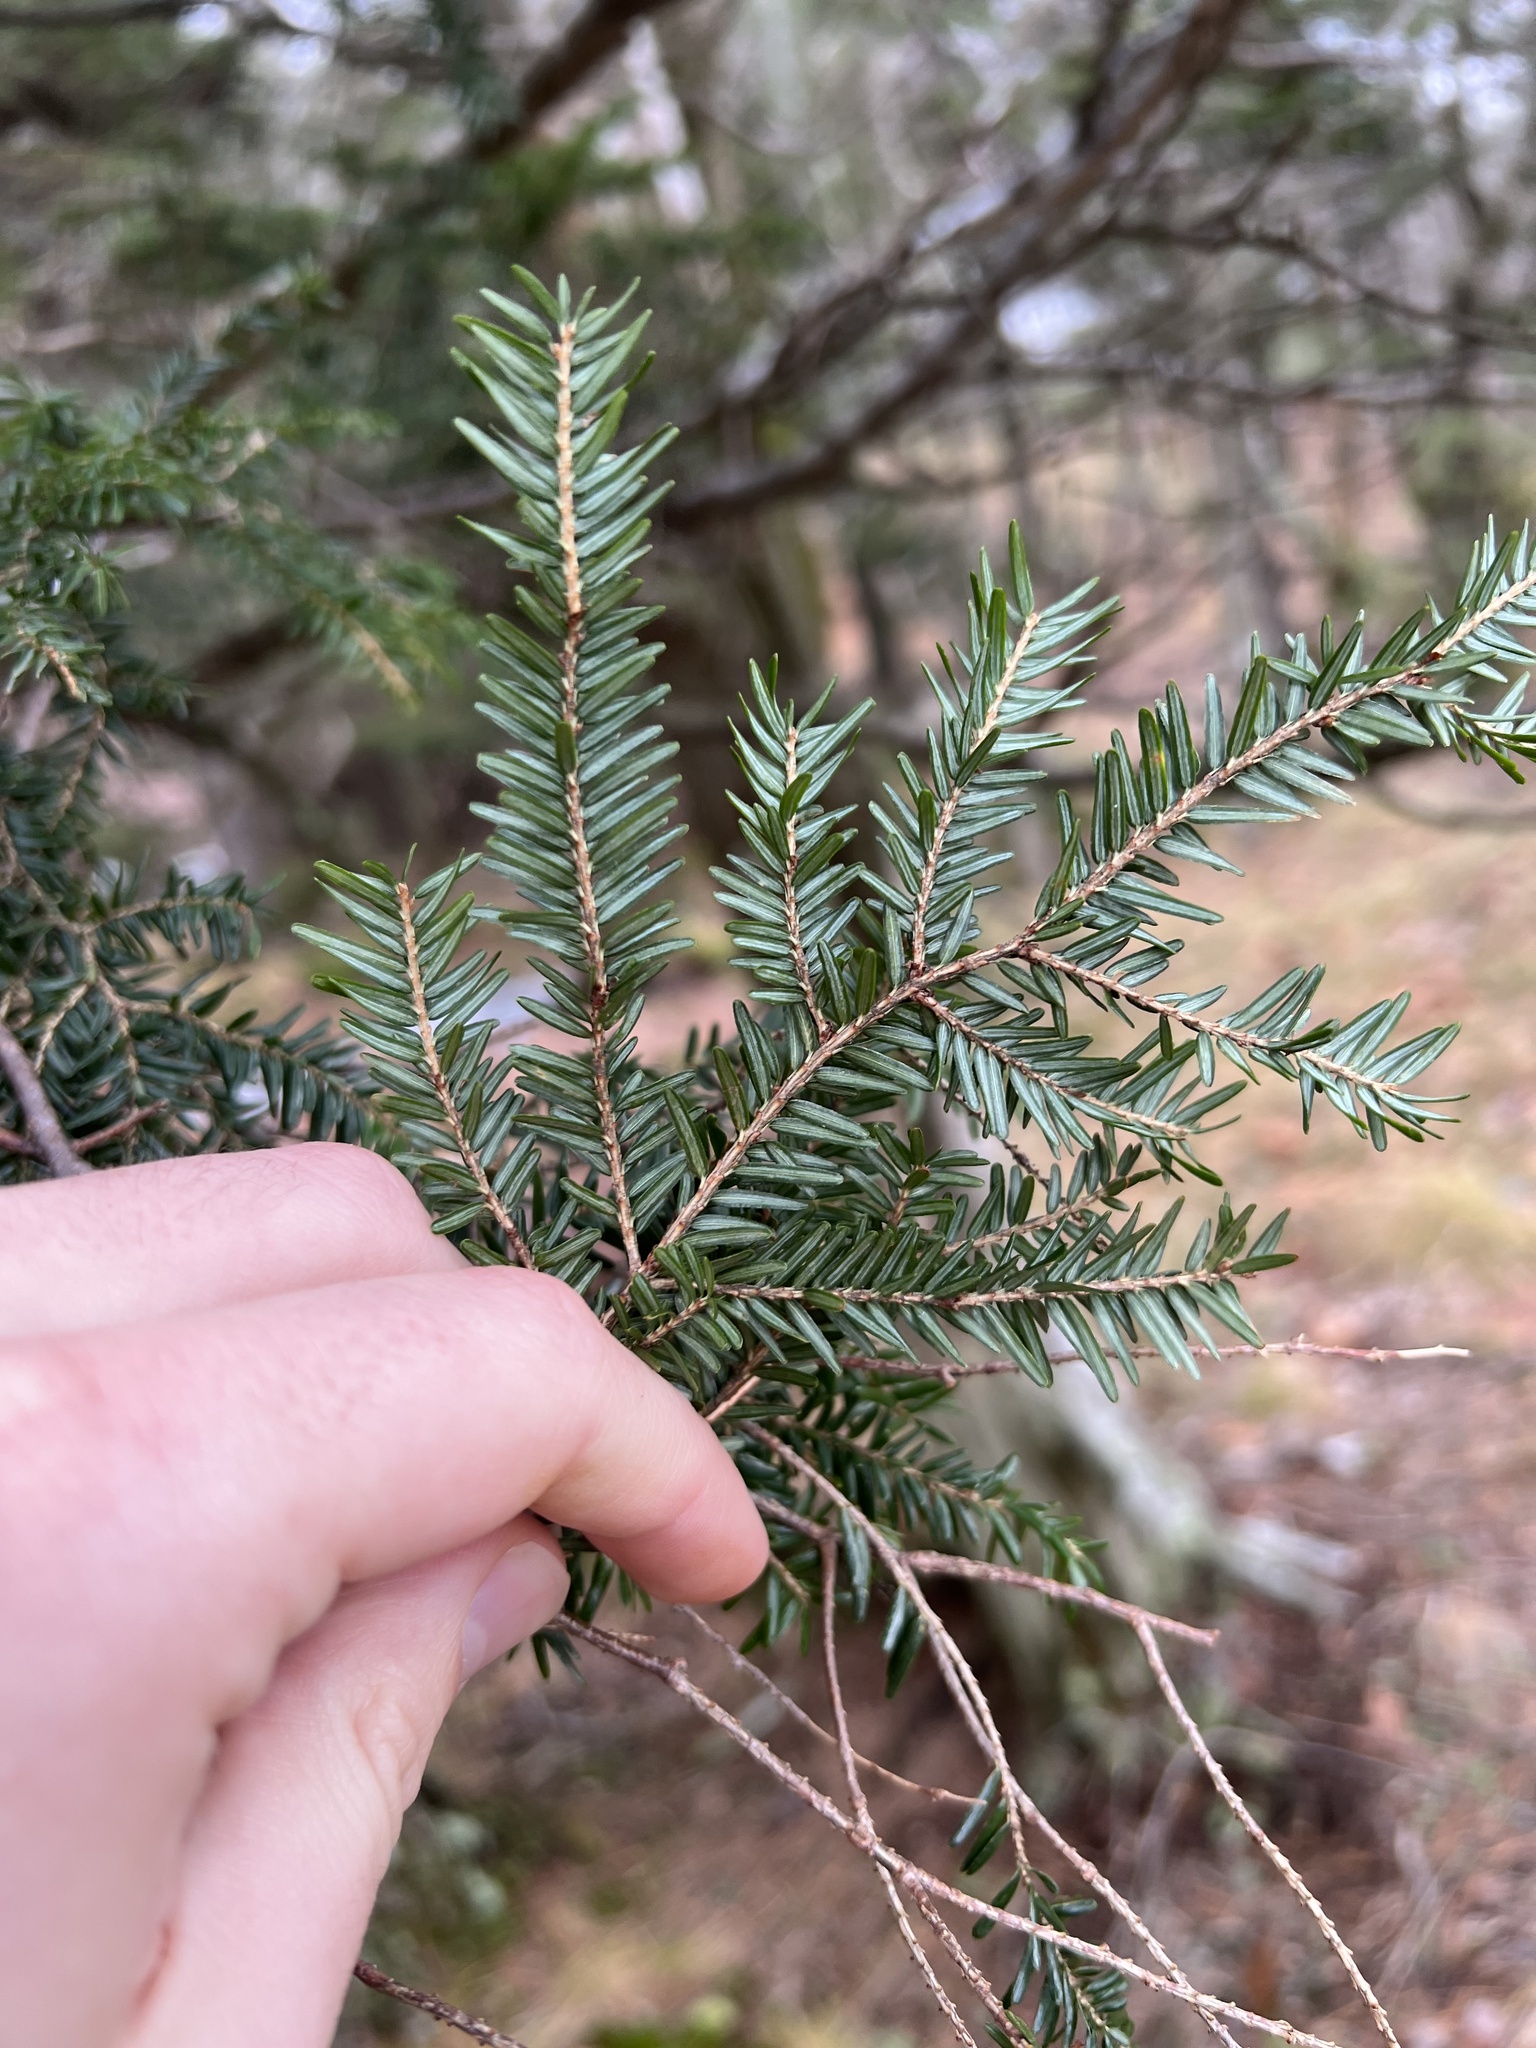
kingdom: Plantae
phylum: Tracheophyta
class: Pinopsida
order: Pinales
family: Pinaceae
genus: Tsuga
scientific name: Tsuga canadensis
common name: Eastern hemlock
